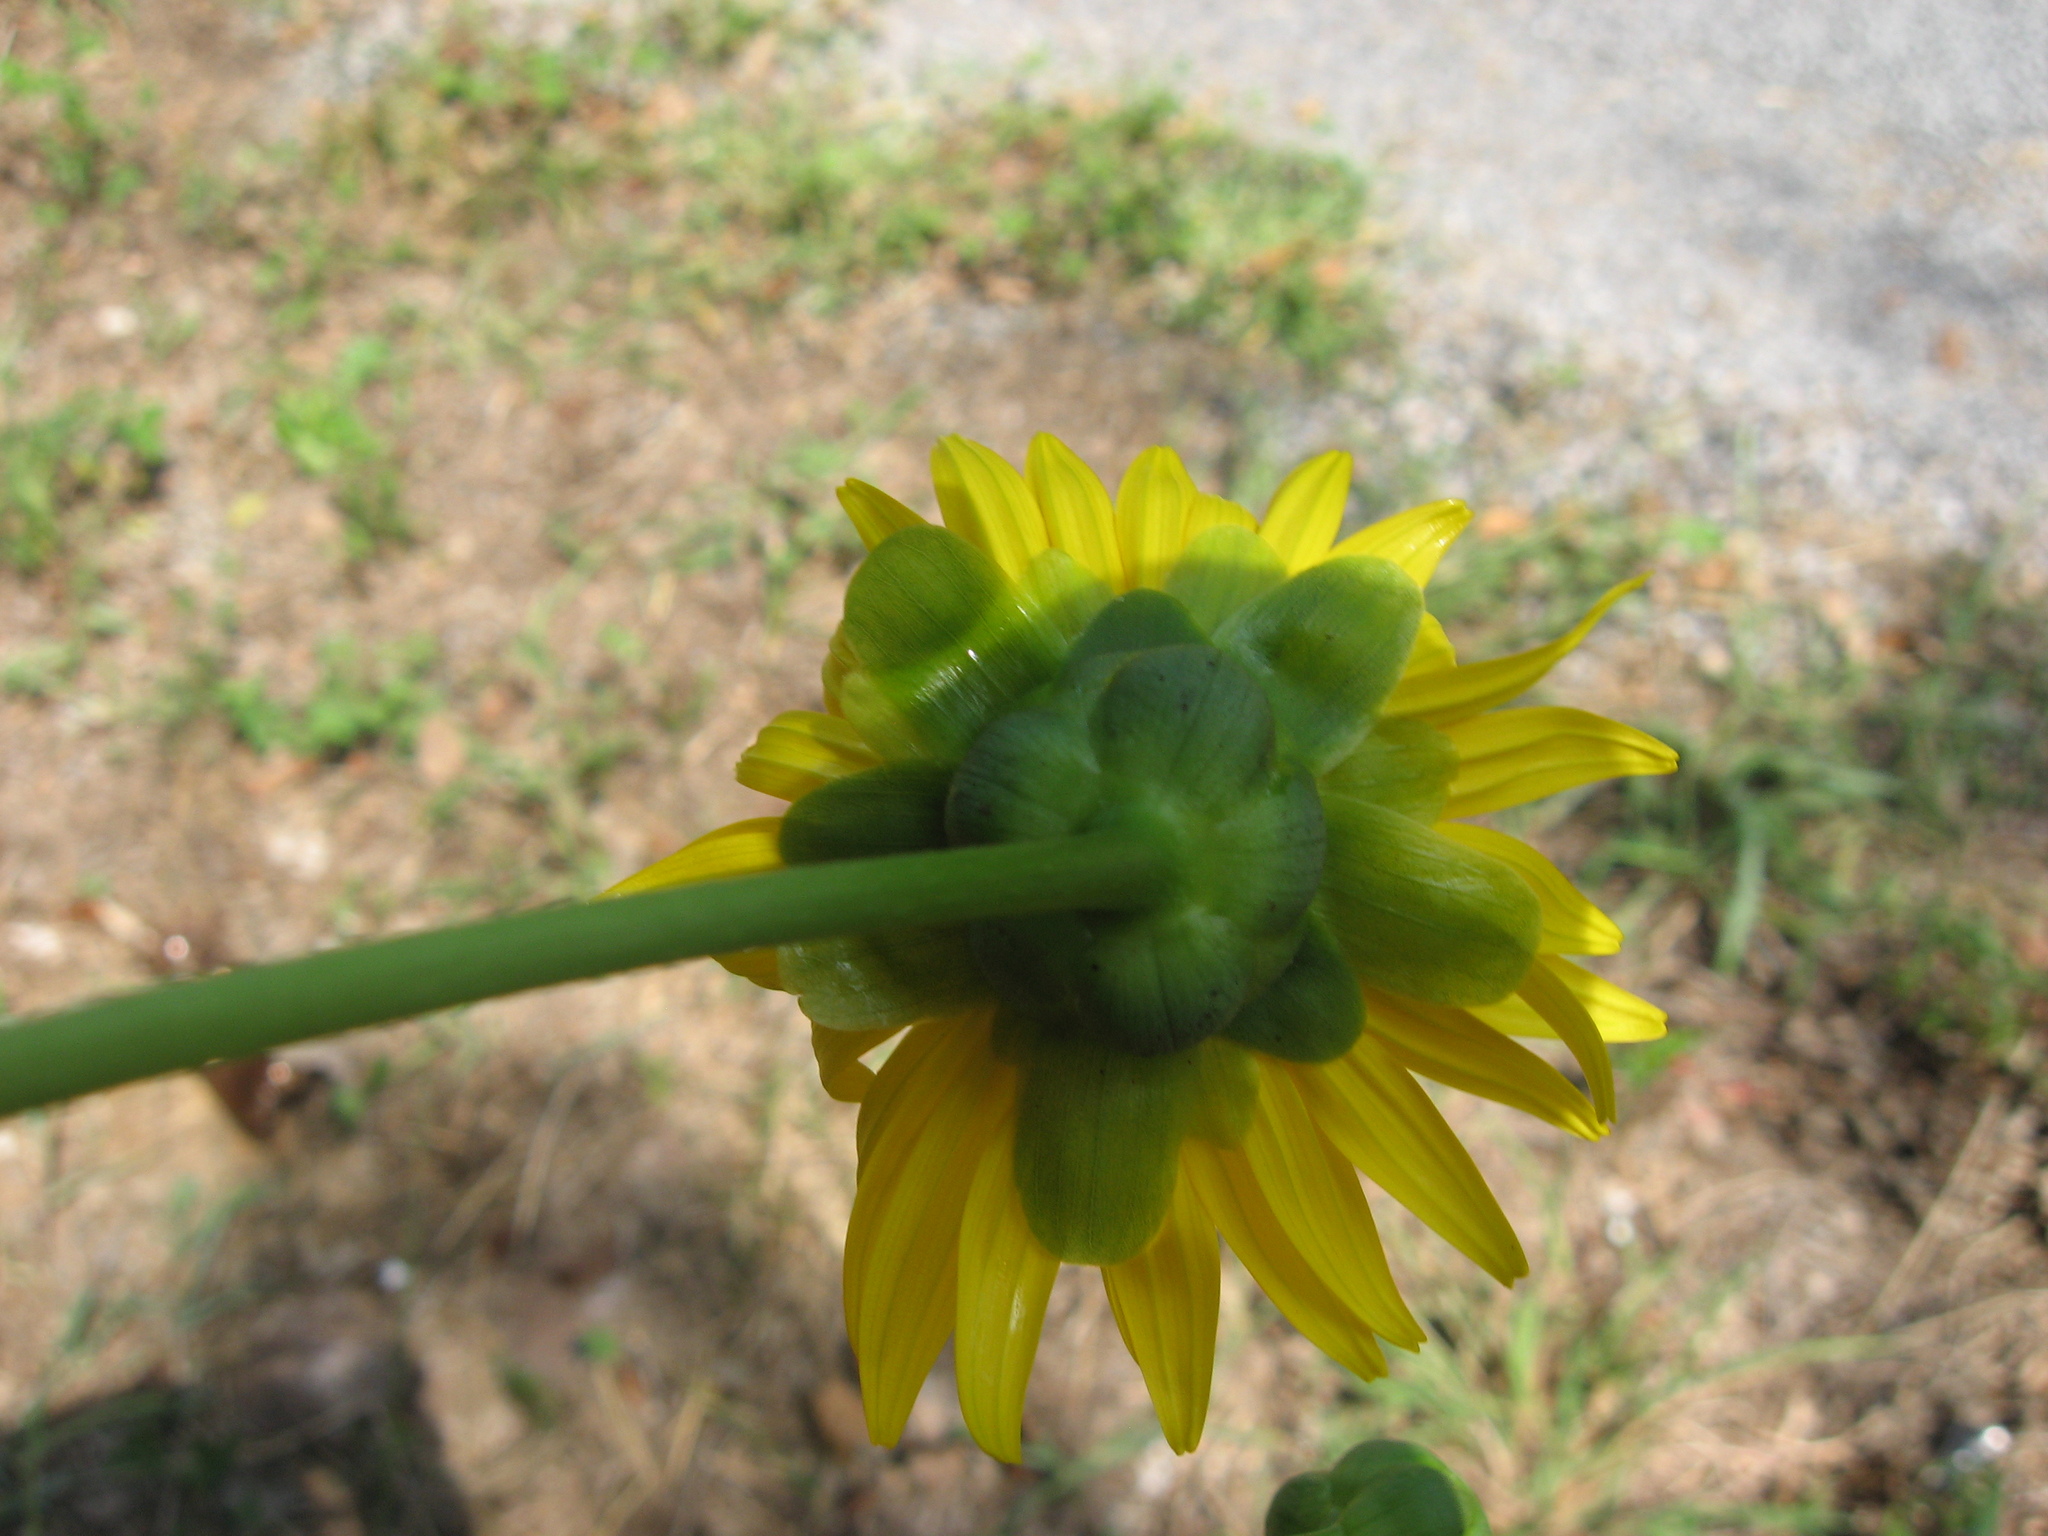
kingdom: Plantae
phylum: Tracheophyta
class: Magnoliopsida
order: Asterales
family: Asteraceae
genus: Silphium
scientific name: Silphium terebinthinaceum
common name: Basal-leaf rosinweed
